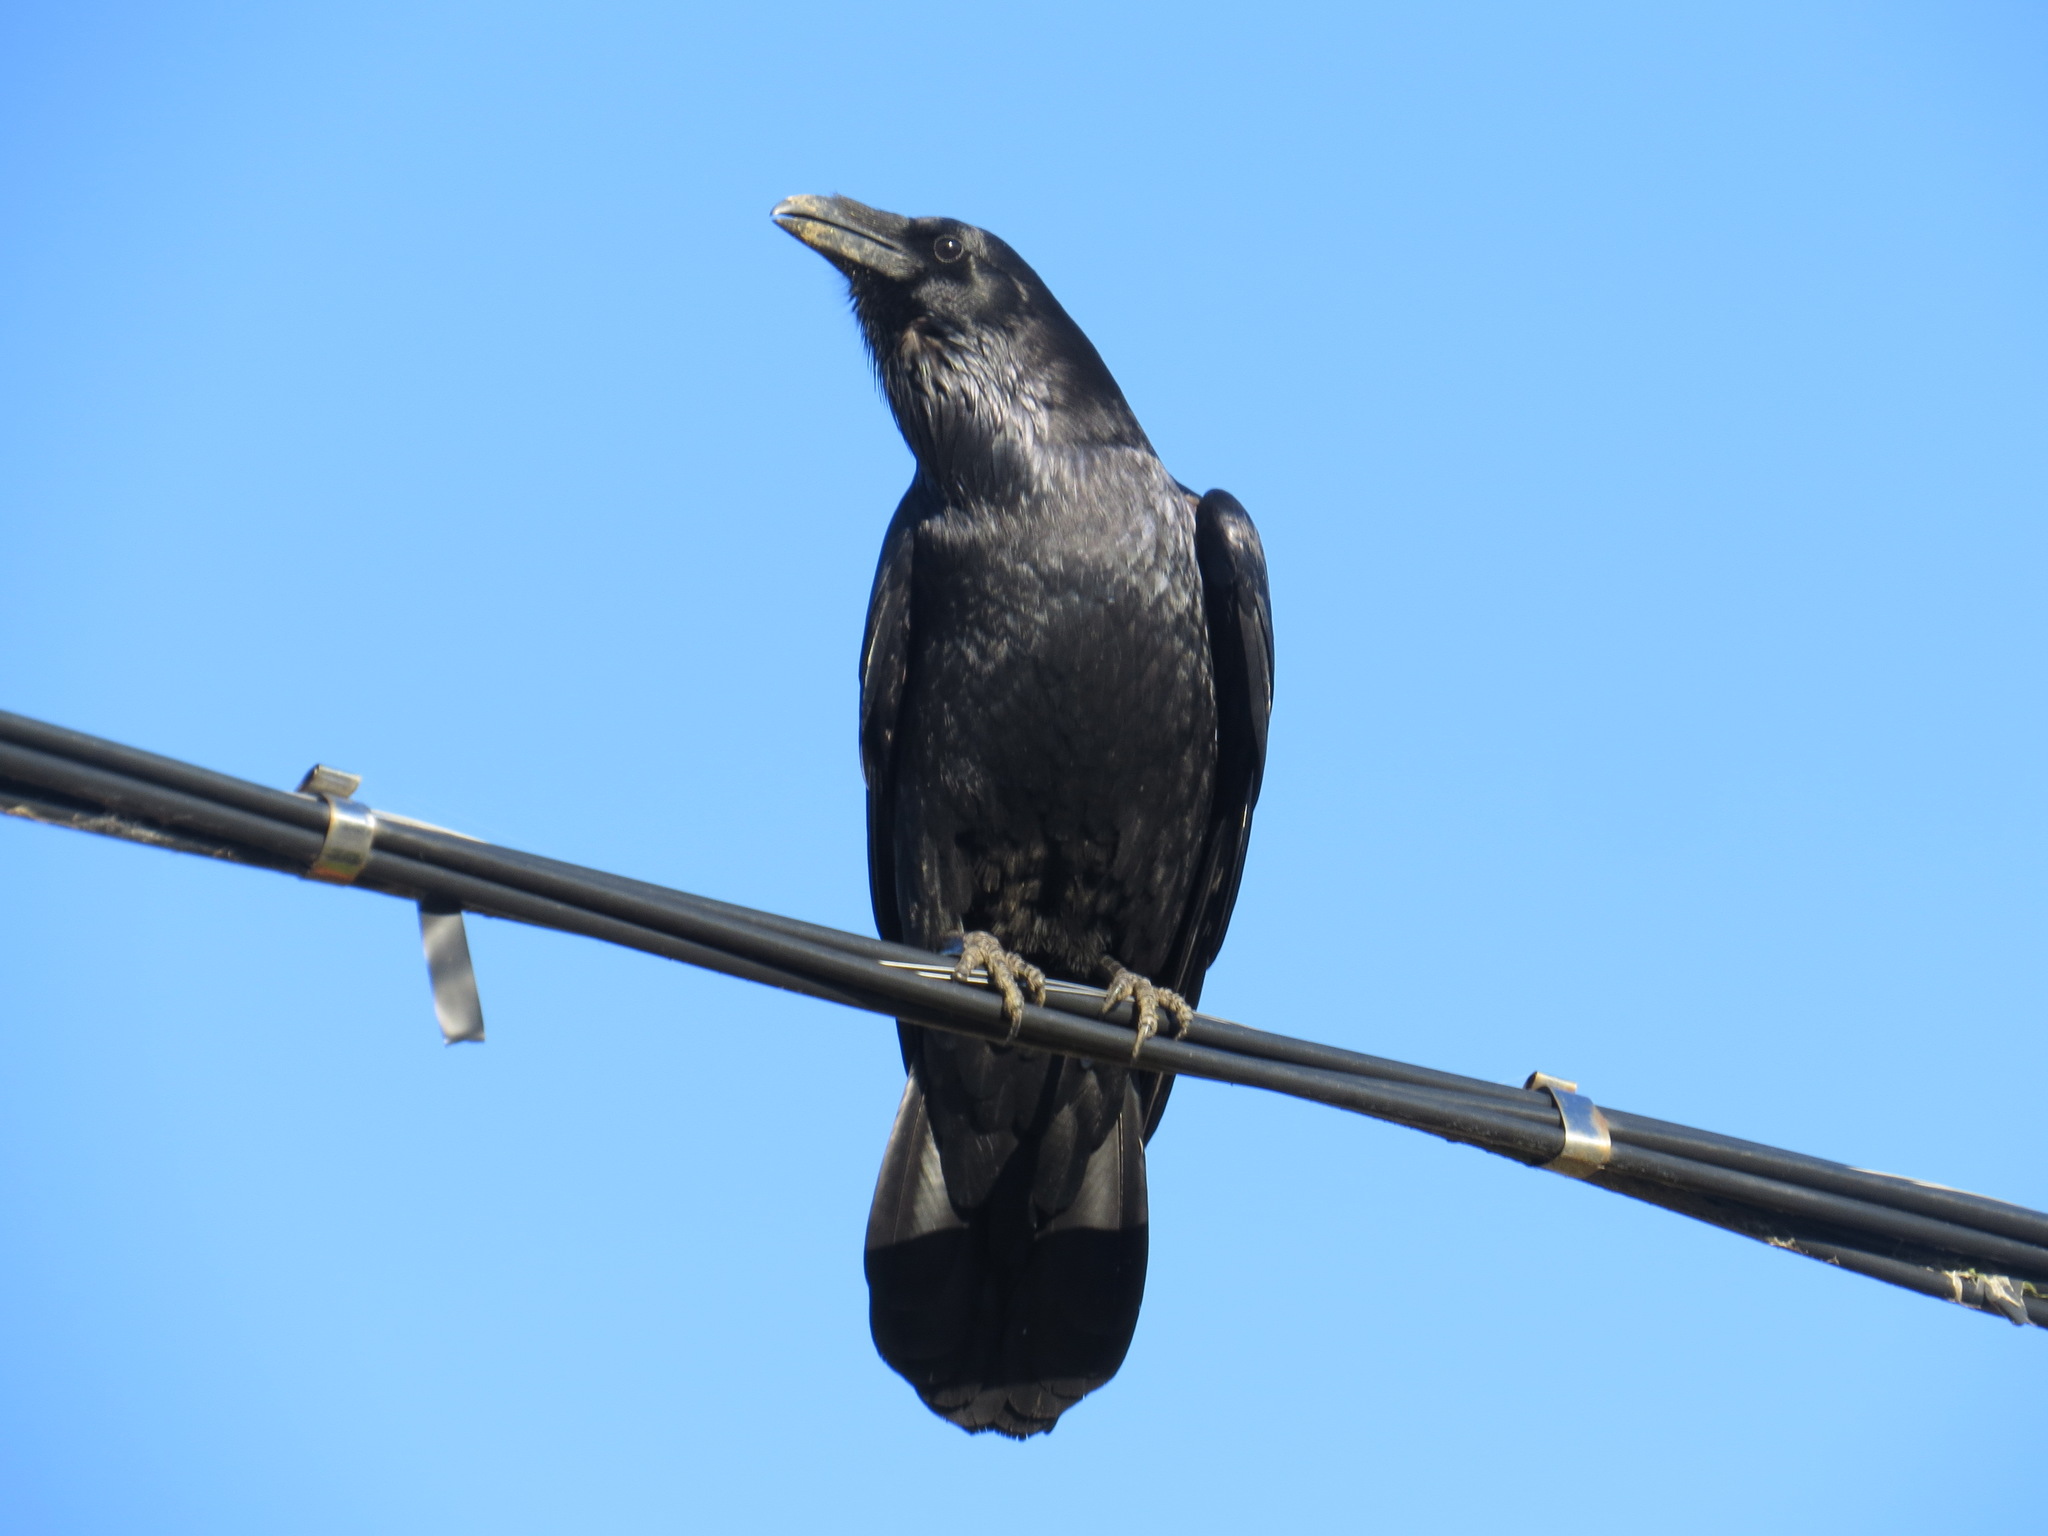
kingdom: Animalia
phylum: Chordata
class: Aves
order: Passeriformes
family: Corvidae
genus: Corvus
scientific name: Corvus corax
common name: Common raven
